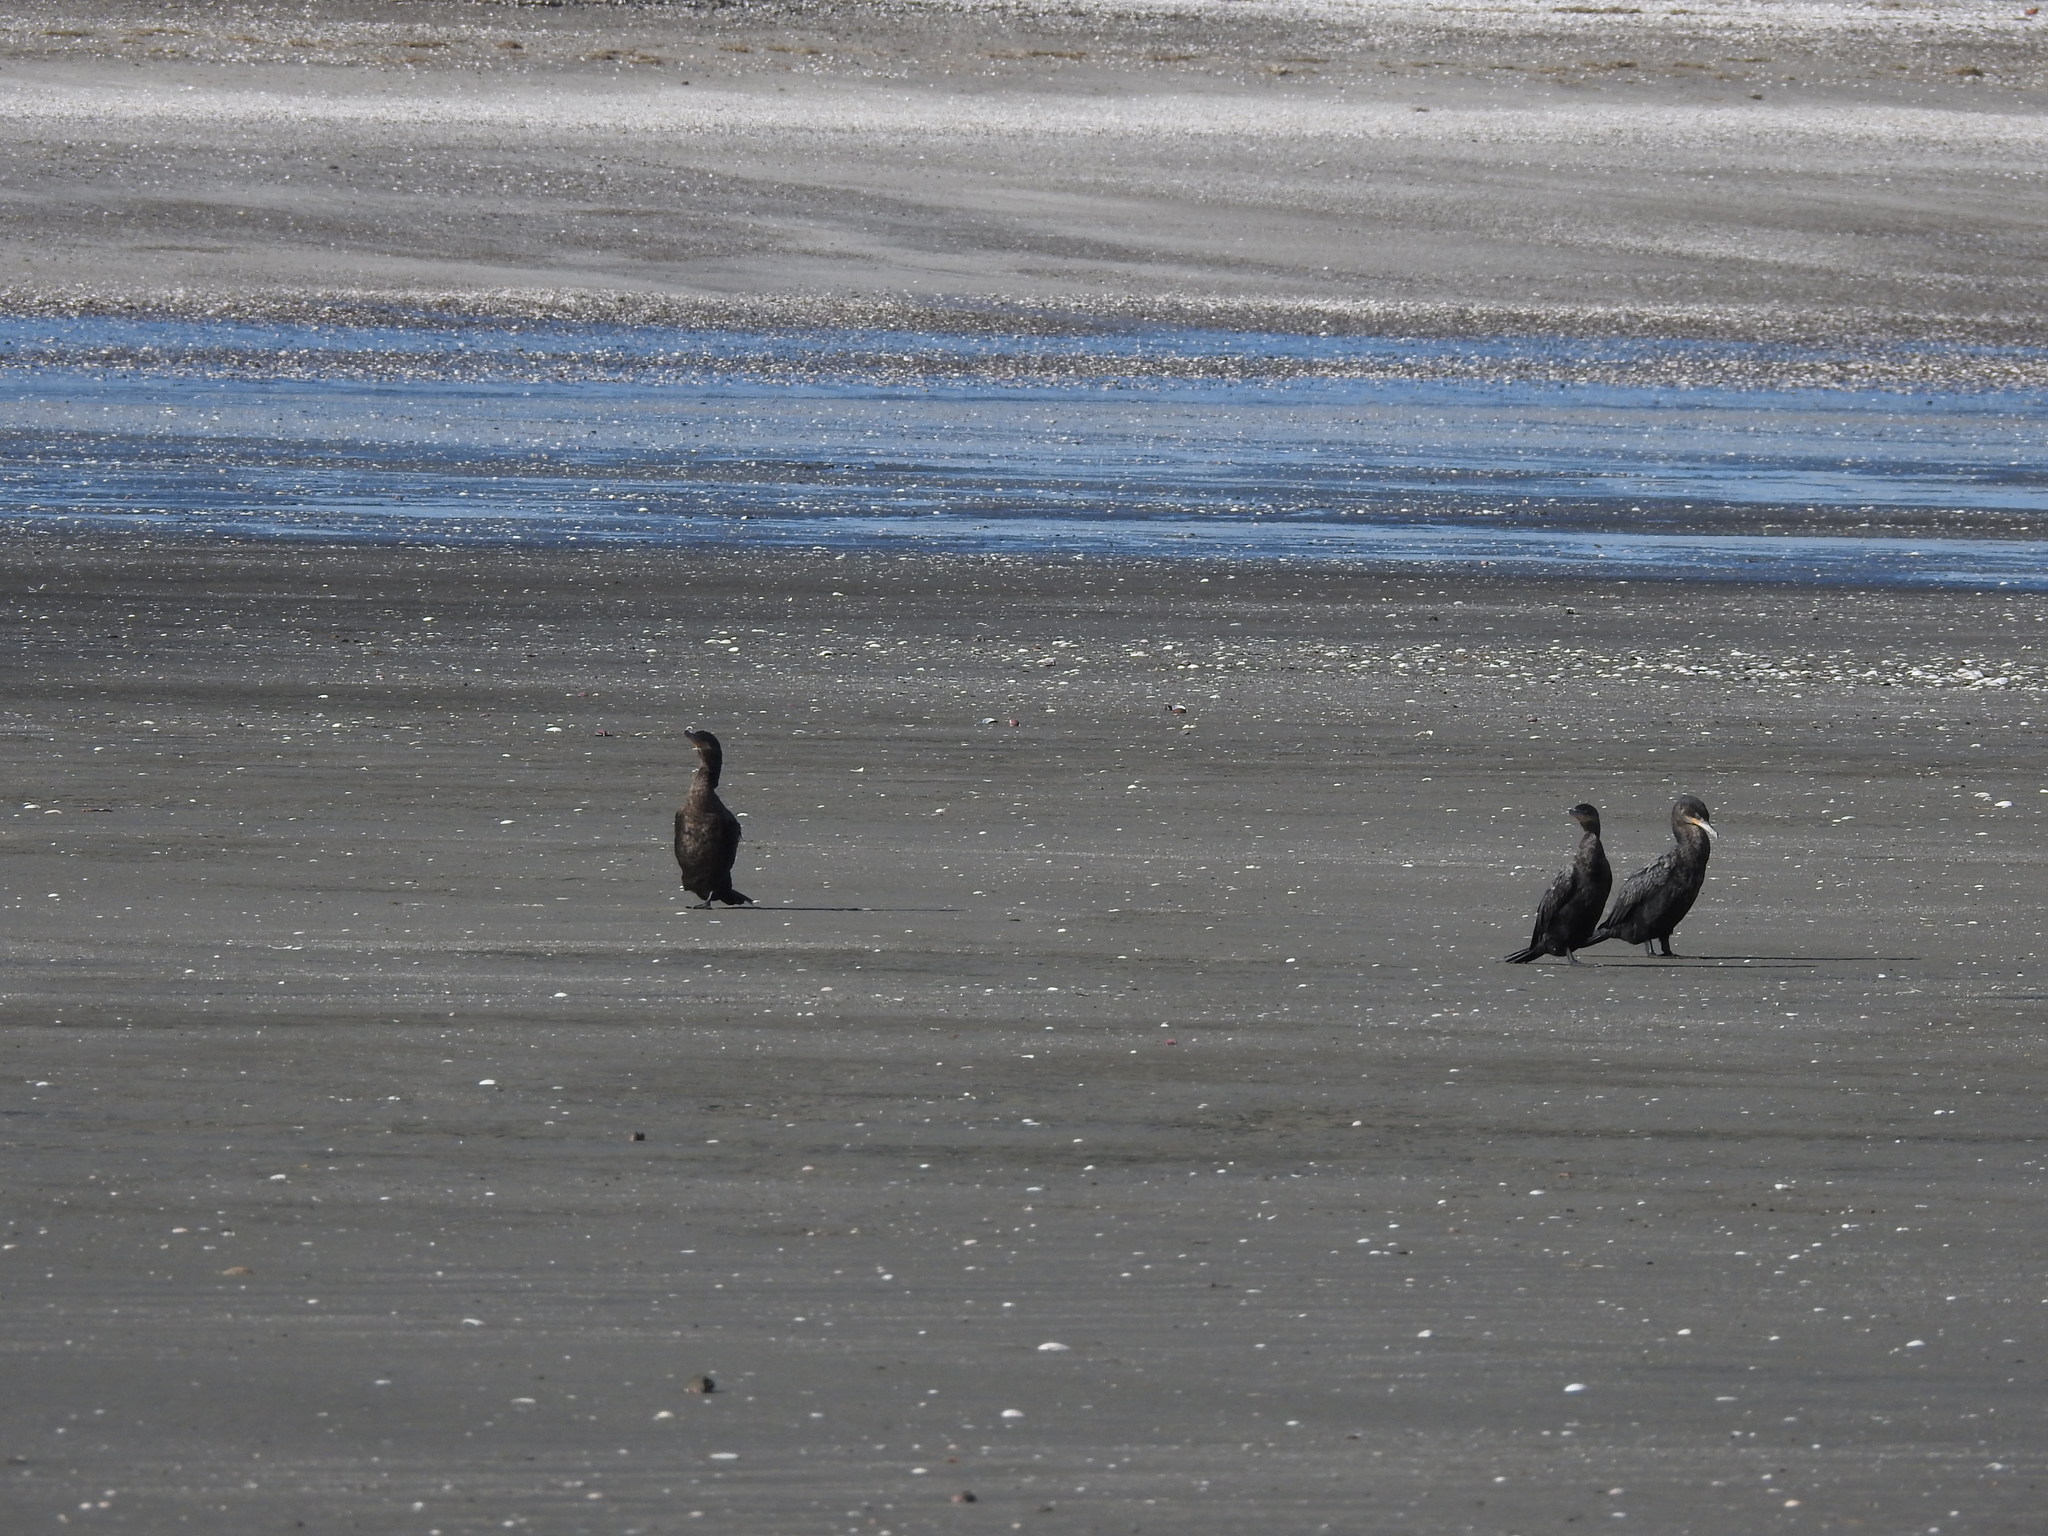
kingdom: Animalia
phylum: Chordata
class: Aves
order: Suliformes
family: Phalacrocoracidae
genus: Phalacrocorax
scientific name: Phalacrocorax brasilianus
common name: Neotropic cormorant
